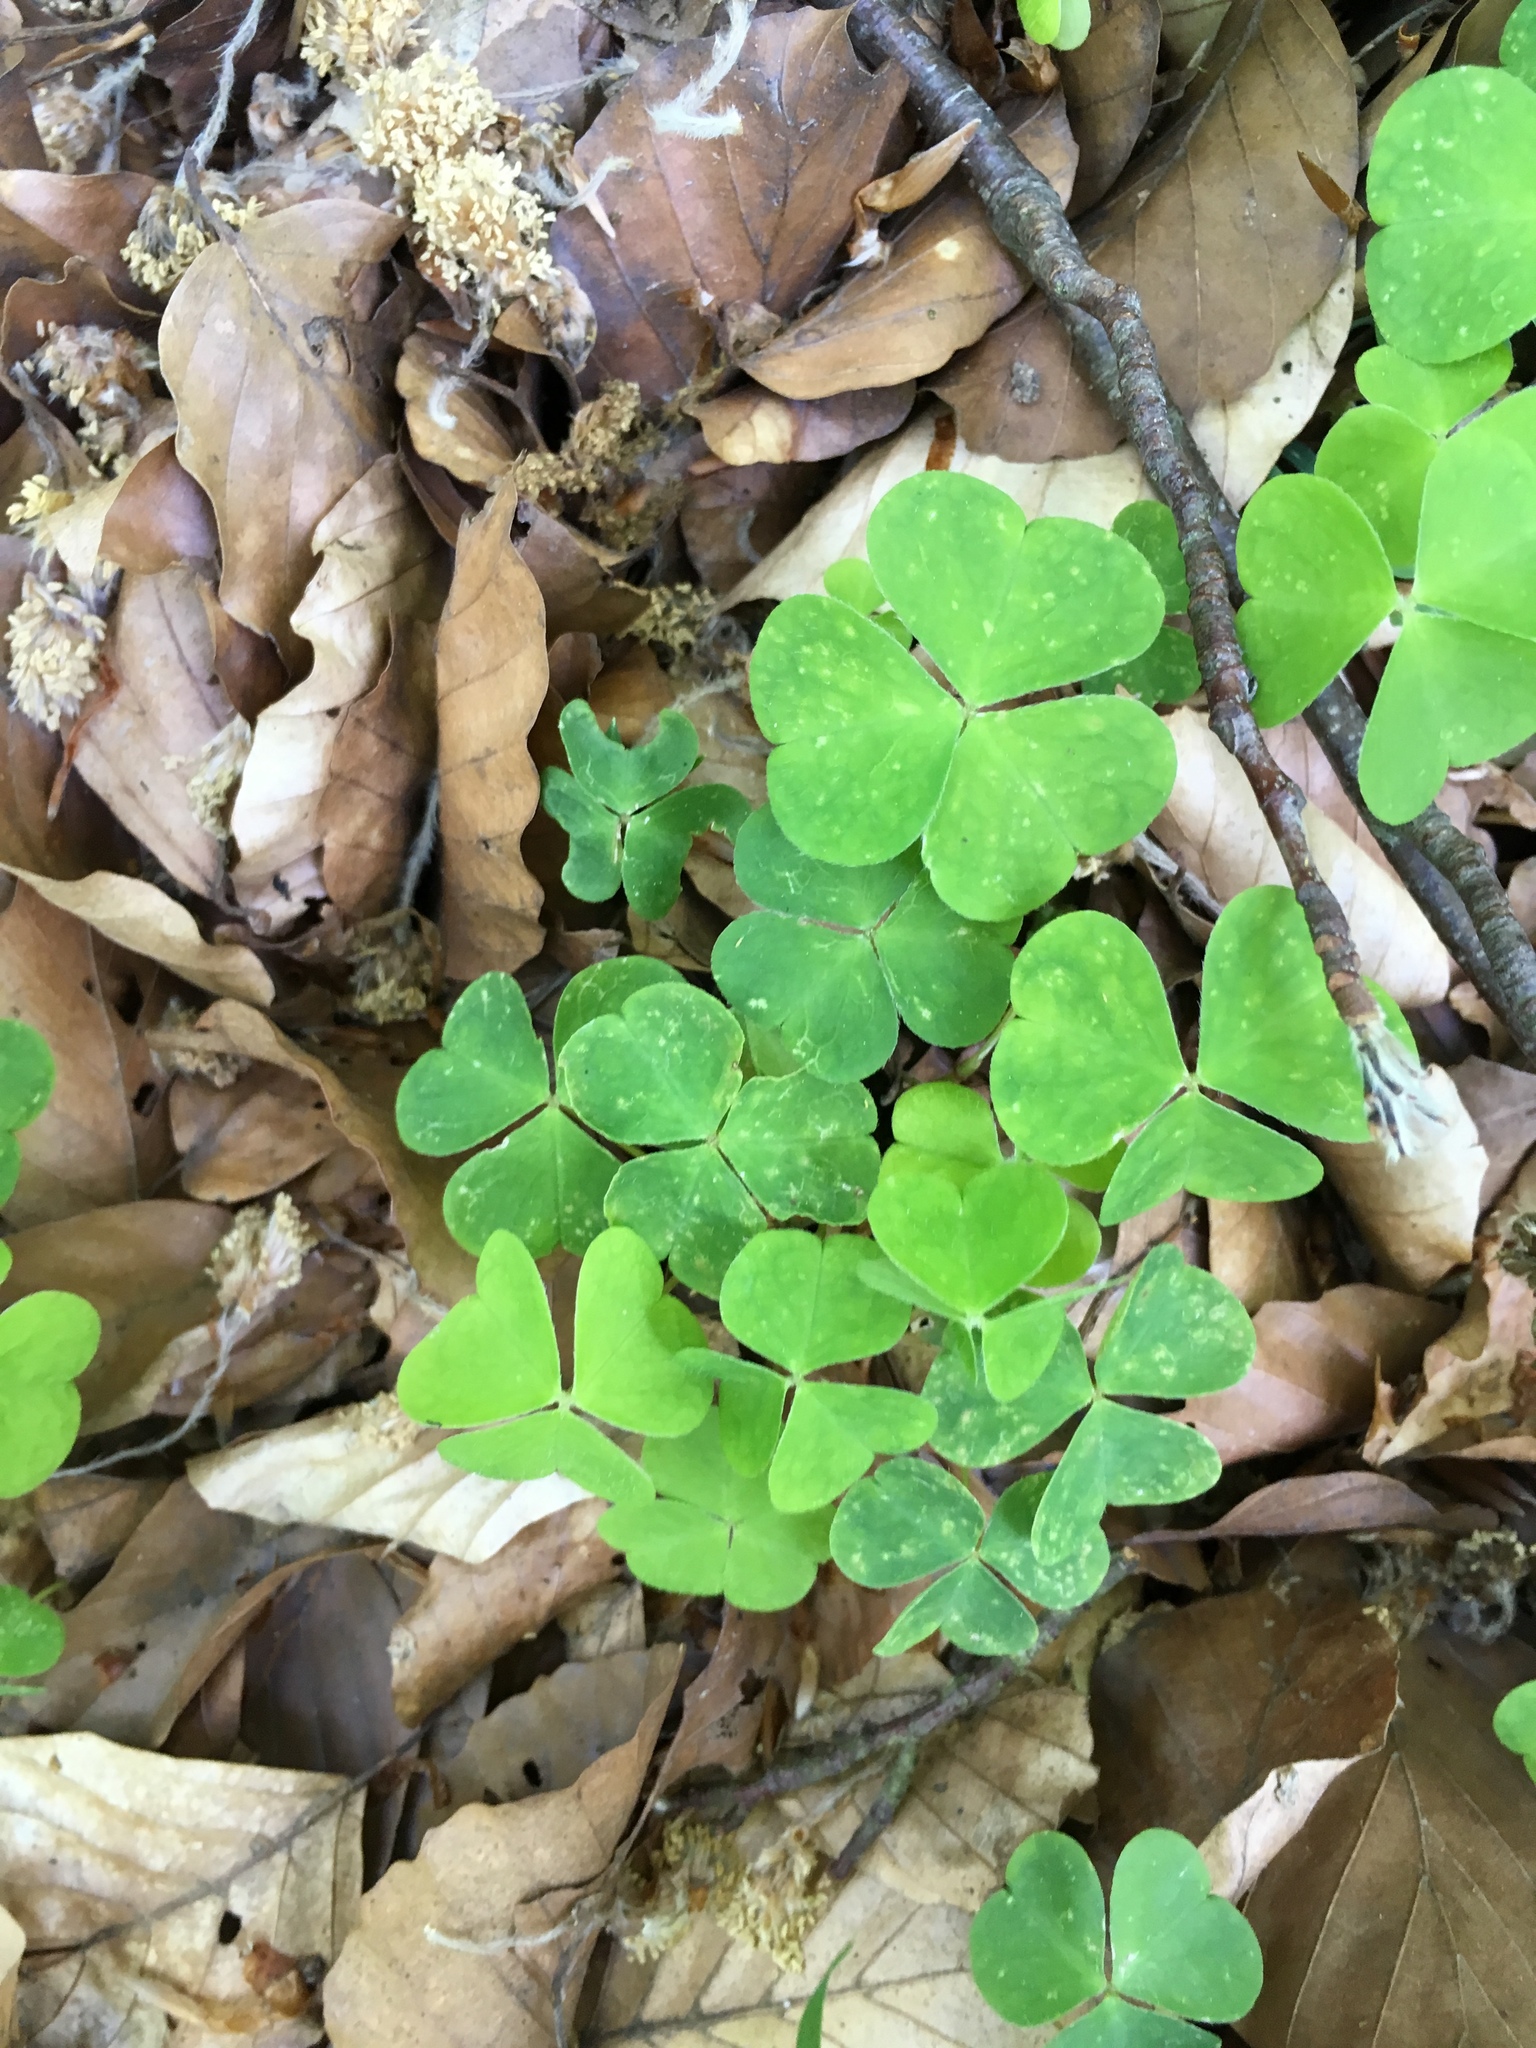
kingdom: Plantae
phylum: Tracheophyta
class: Magnoliopsida
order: Oxalidales
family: Oxalidaceae
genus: Oxalis
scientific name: Oxalis acetosella
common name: Wood-sorrel
